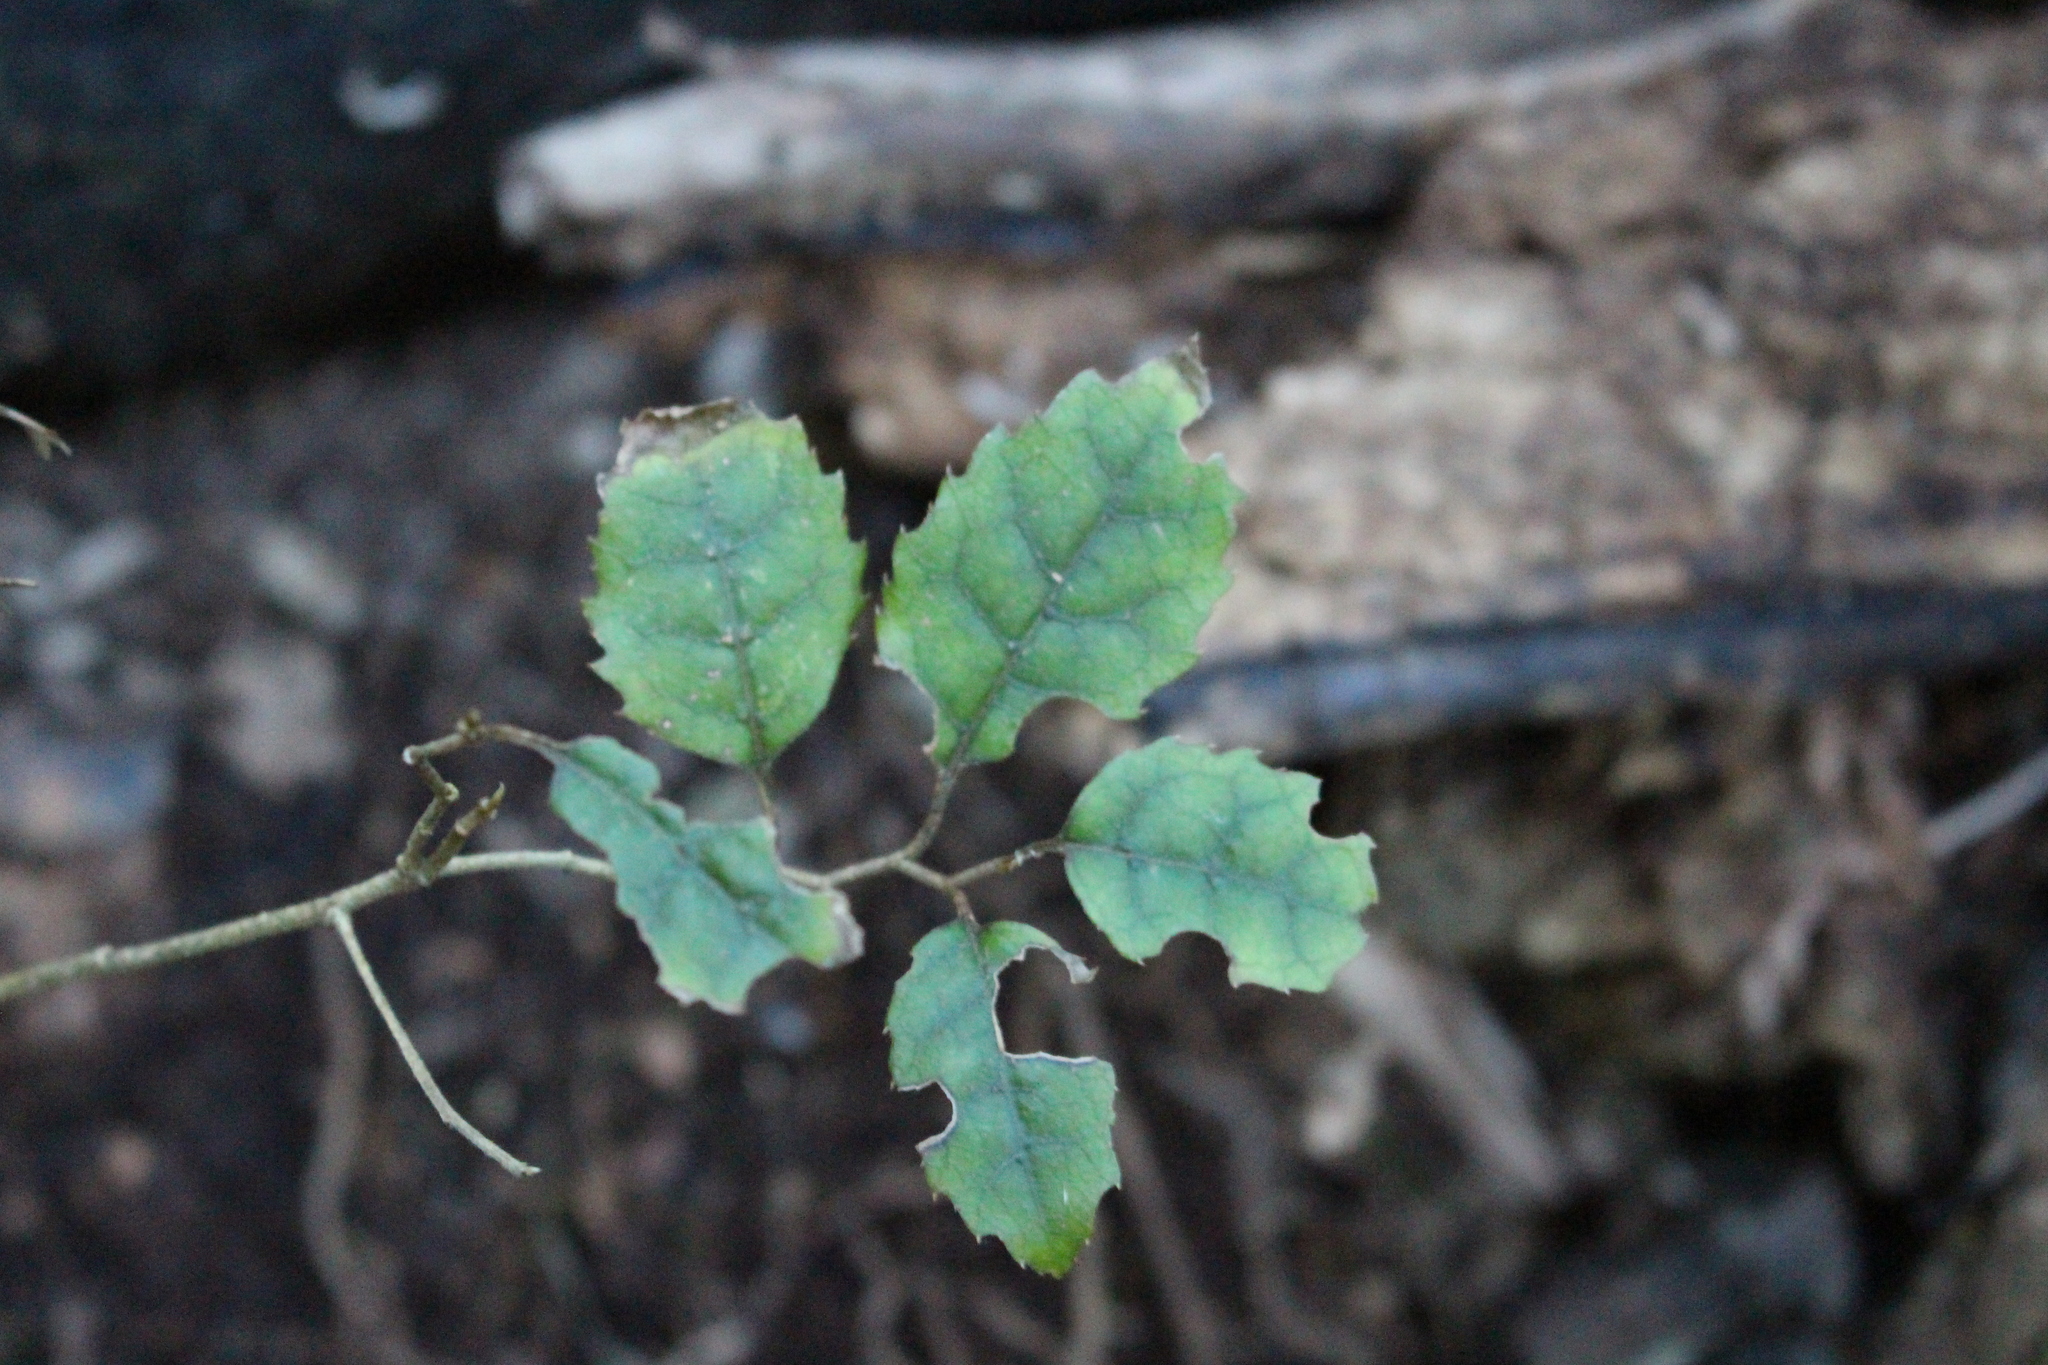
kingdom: Plantae
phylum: Tracheophyta
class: Magnoliopsida
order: Asterales
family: Rousseaceae
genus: Carpodetus
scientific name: Carpodetus serratus
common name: White mapau
